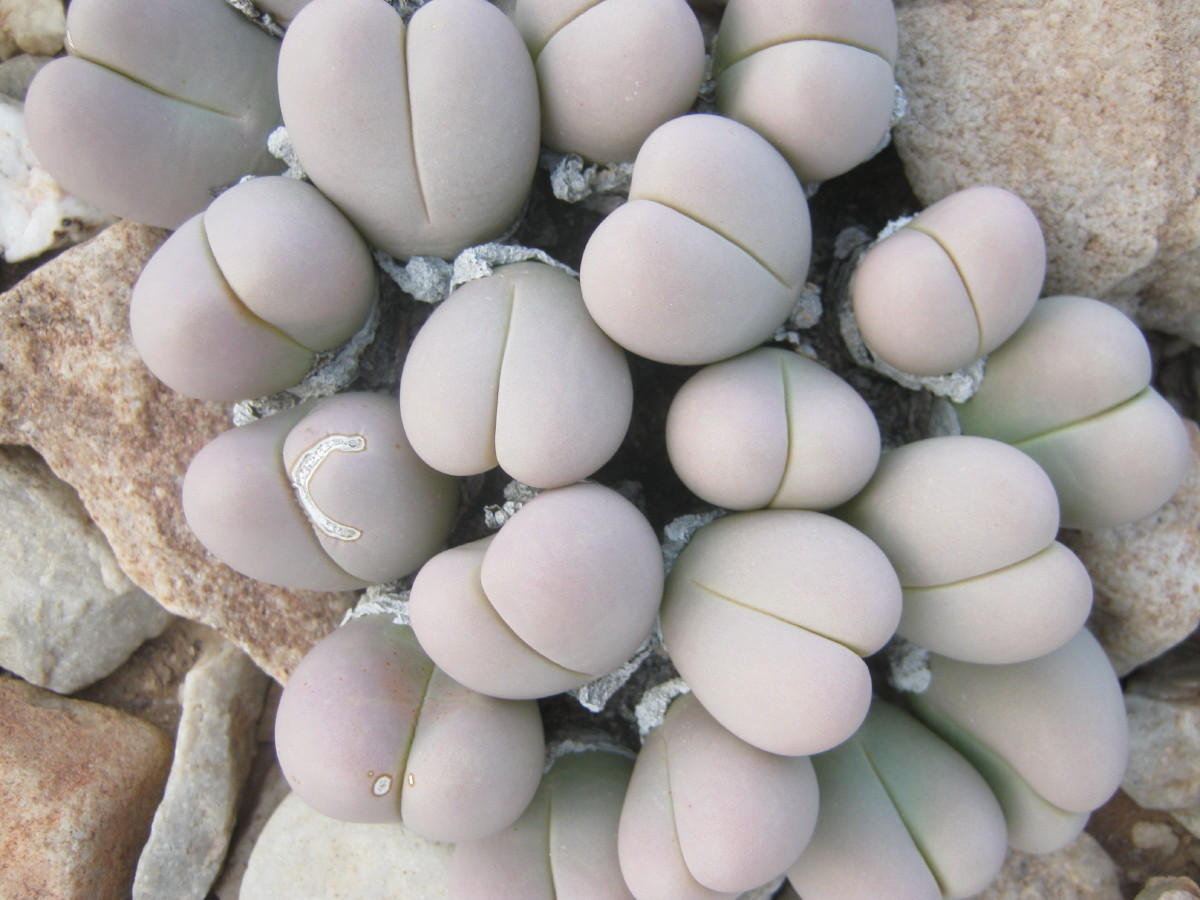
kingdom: Plantae
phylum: Tracheophyta
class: Magnoliopsida
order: Caryophyllales
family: Aizoaceae
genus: Gibbaeum
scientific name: Gibbaeum heathii
